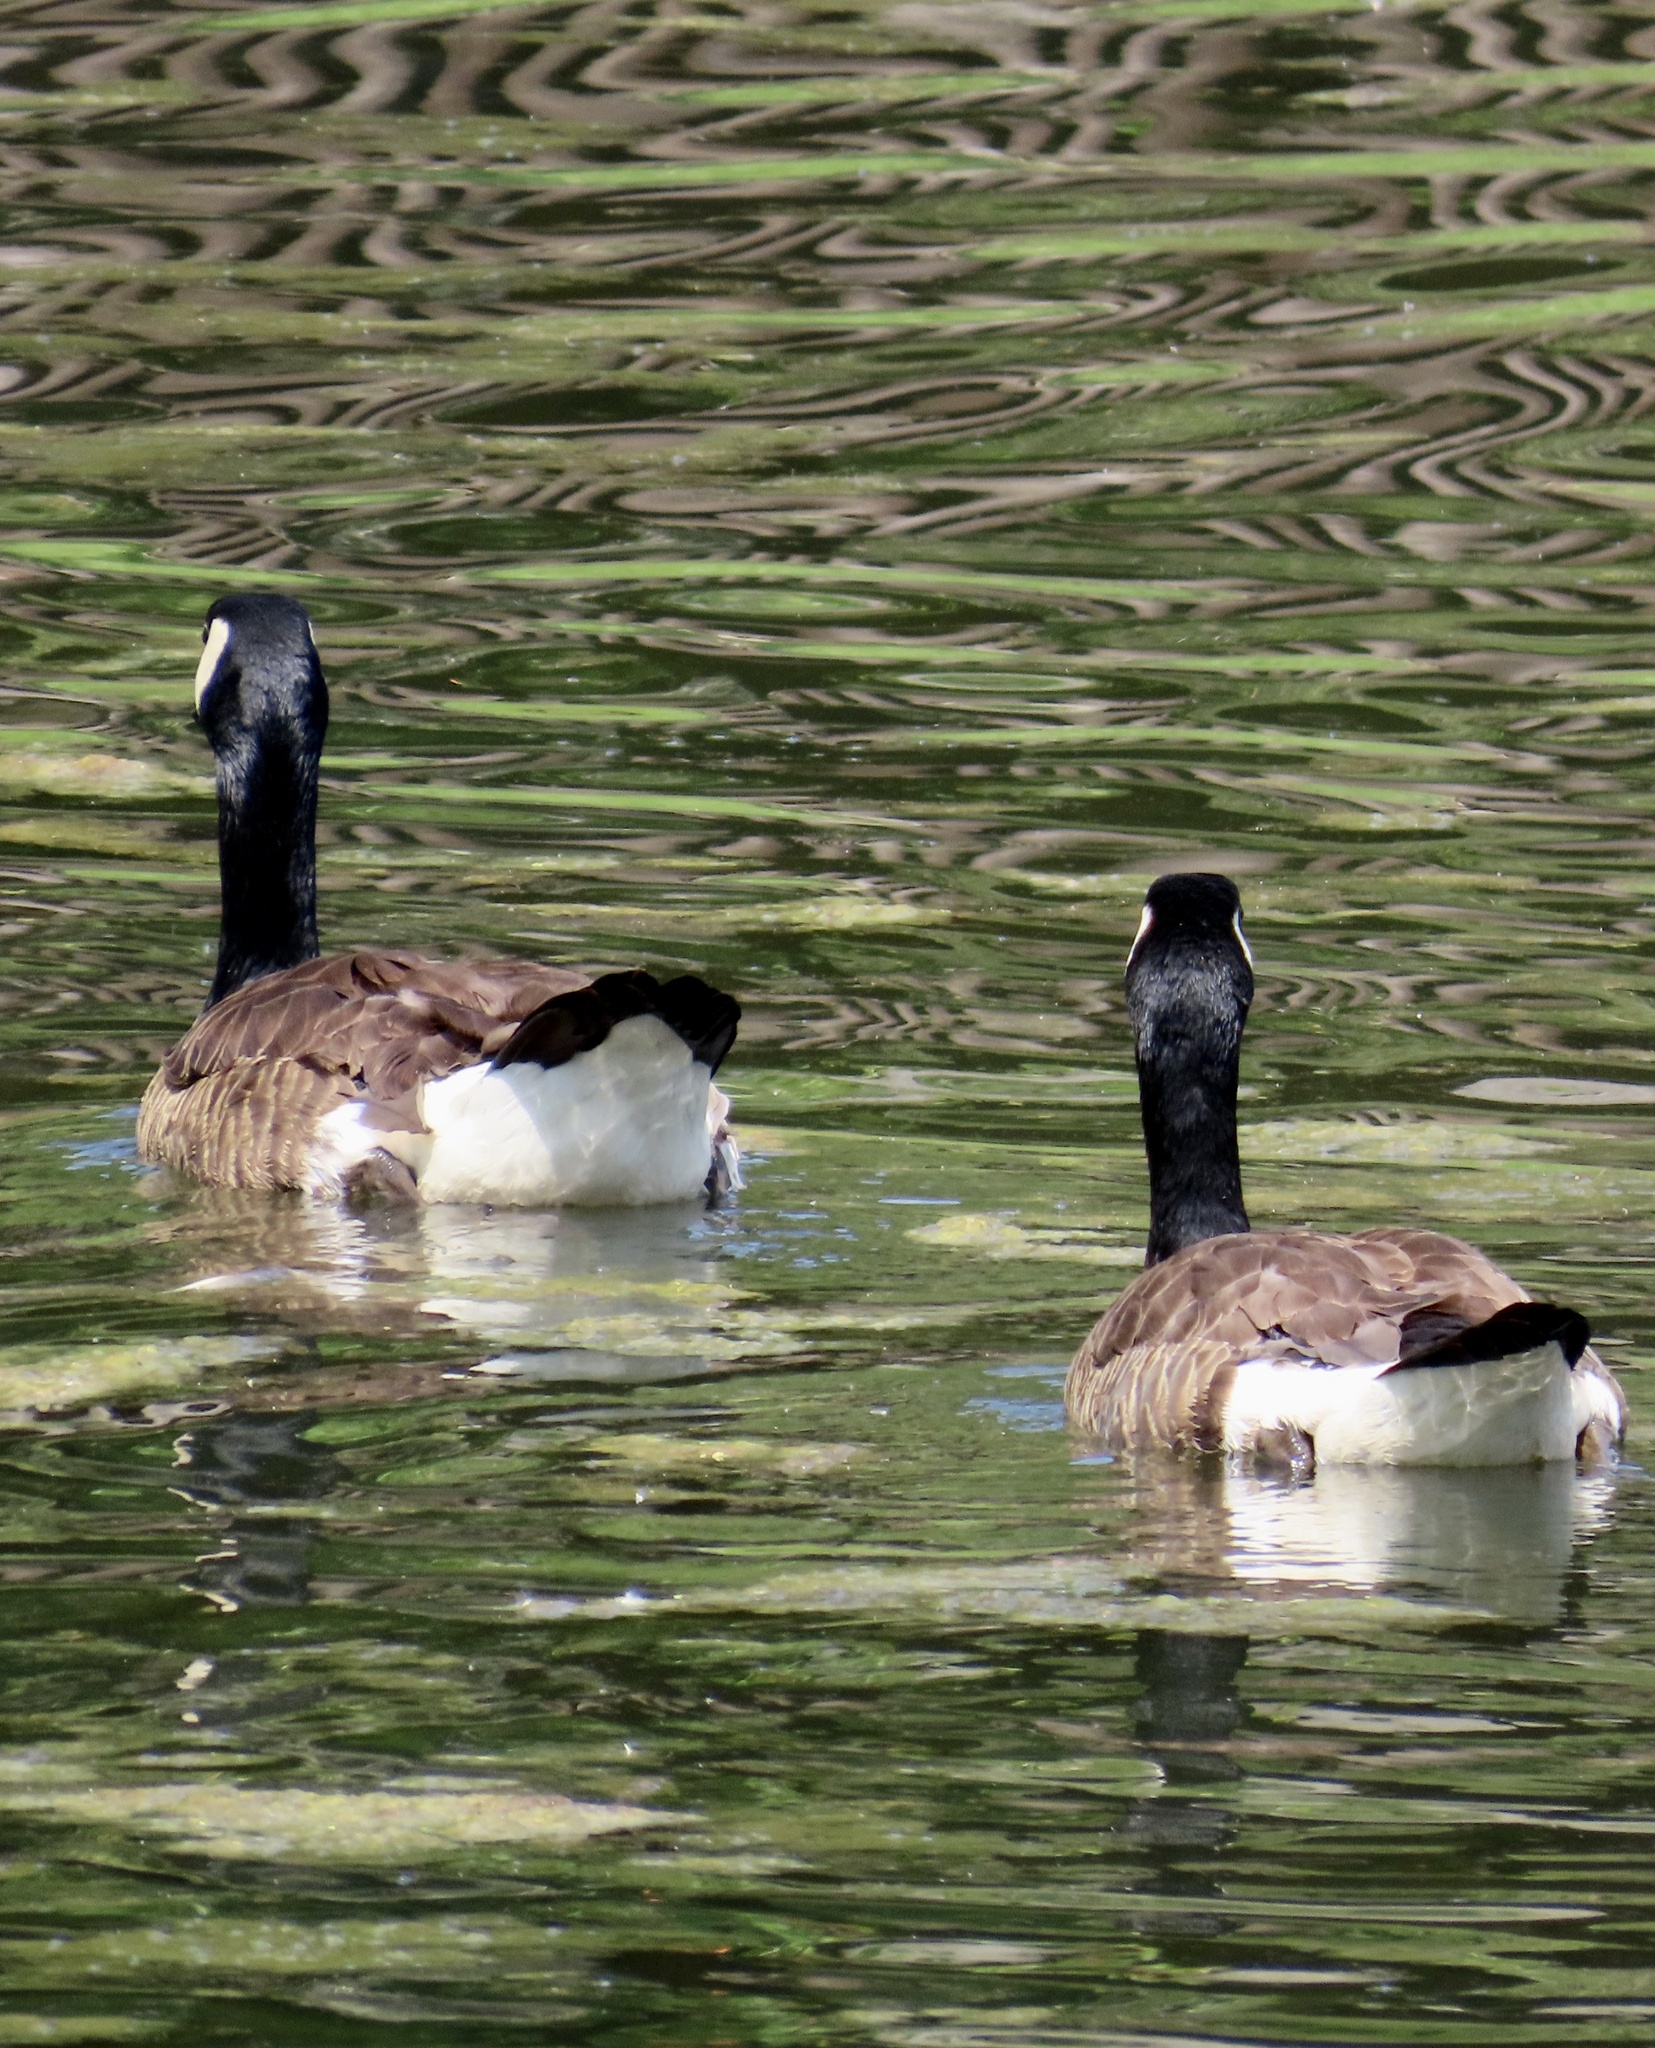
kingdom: Animalia
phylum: Chordata
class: Aves
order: Anseriformes
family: Anatidae
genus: Branta
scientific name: Branta canadensis
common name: Canada goose
